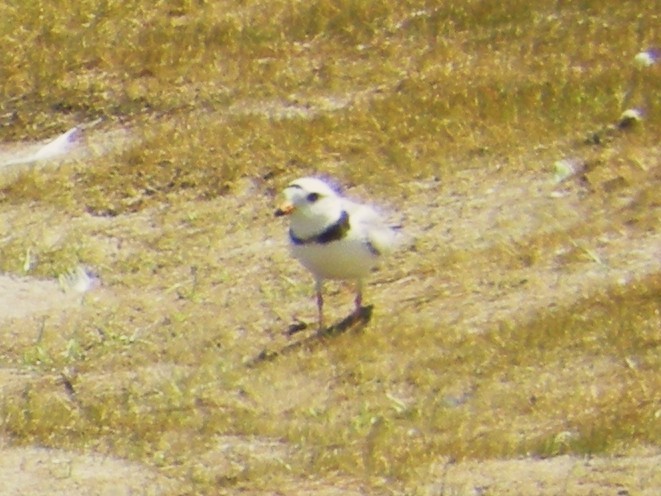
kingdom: Animalia
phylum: Chordata
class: Aves
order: Charadriiformes
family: Charadriidae
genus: Charadrius
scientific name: Charadrius melodus
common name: Piping plover
